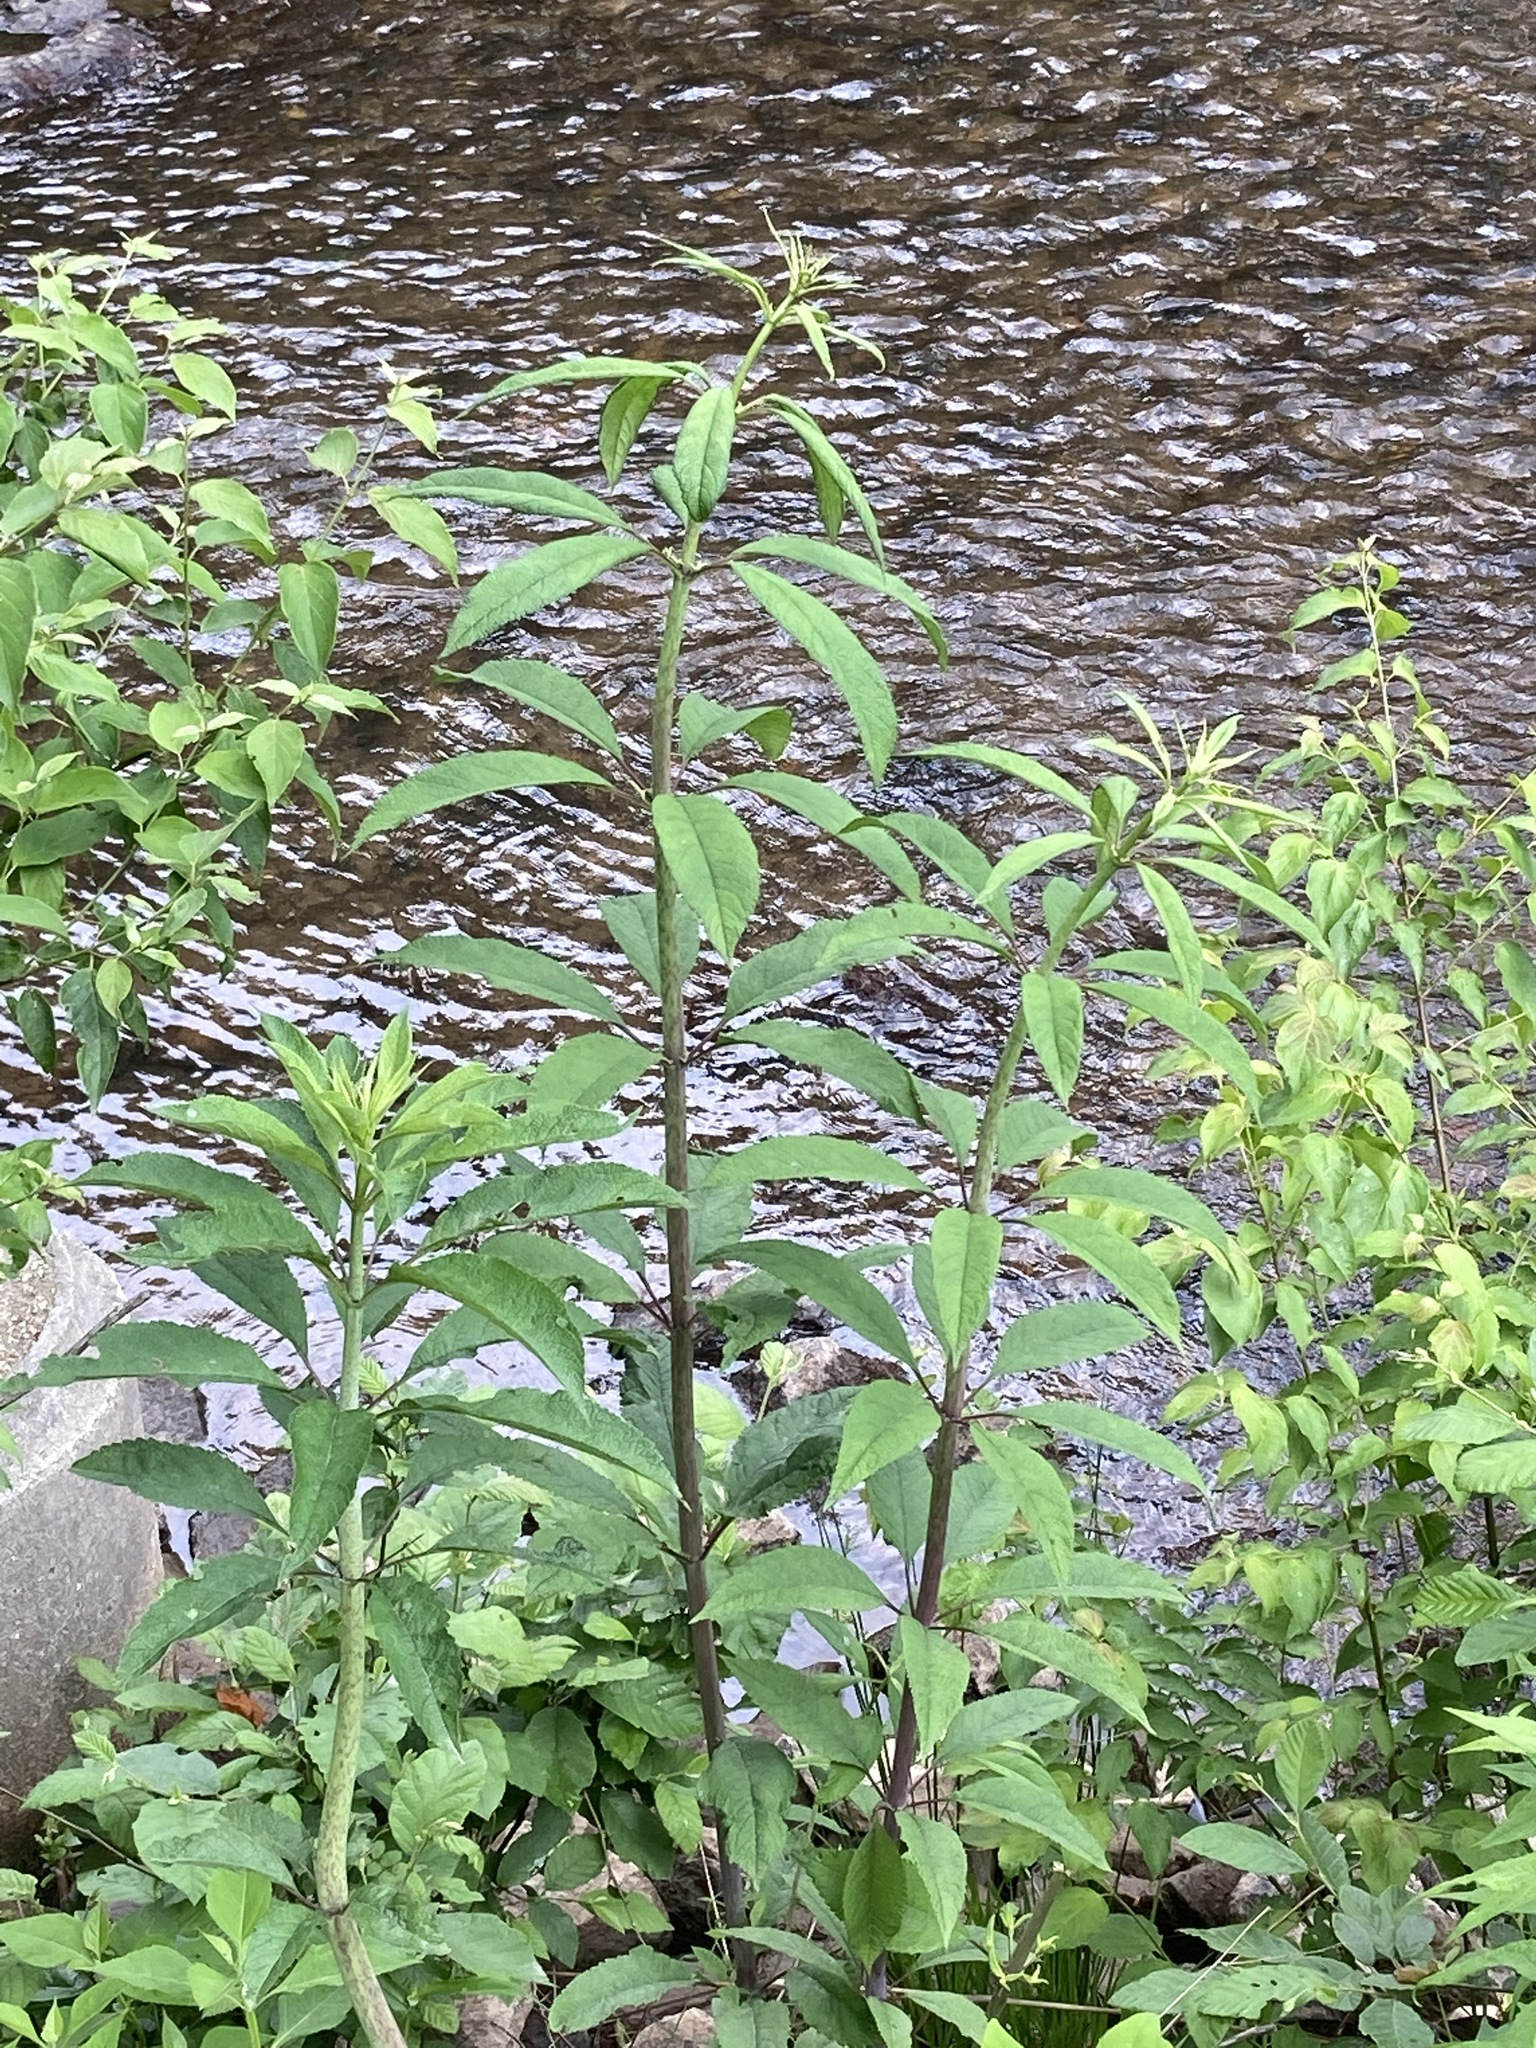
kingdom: Plantae
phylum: Tracheophyta
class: Magnoliopsida
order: Asterales
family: Asteraceae
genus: Eutrochium
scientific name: Eutrochium fistulosum
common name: Trumpetweed
